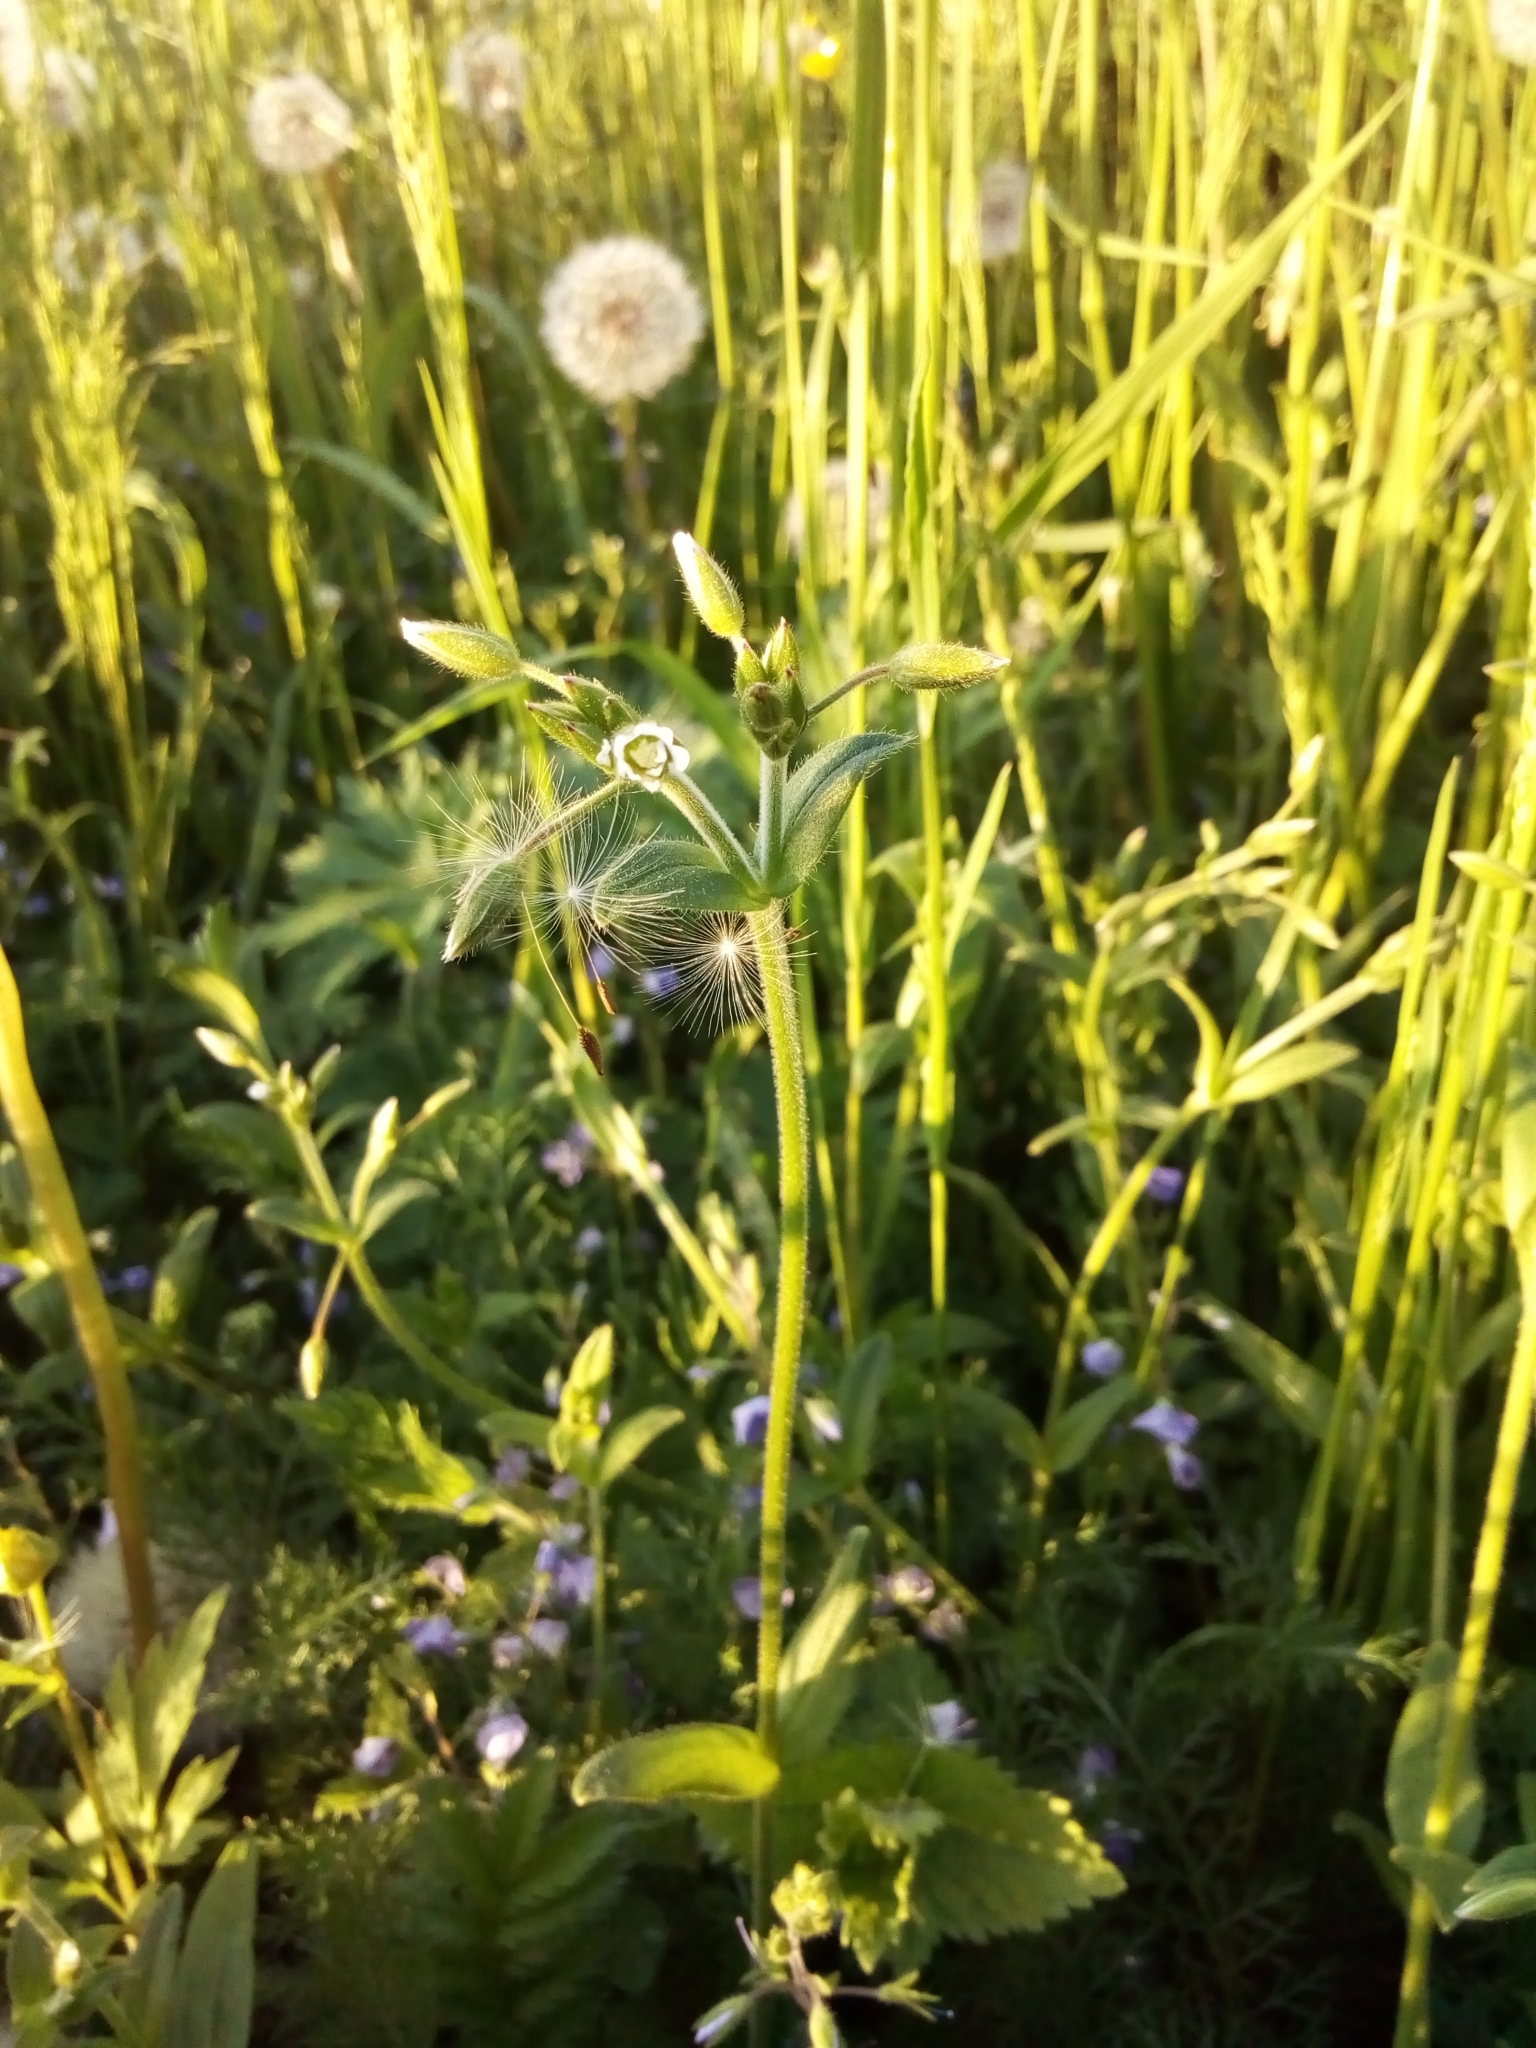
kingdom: Plantae
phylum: Tracheophyta
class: Magnoliopsida
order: Caryophyllales
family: Caryophyllaceae
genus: Cerastium
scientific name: Cerastium holosteoides
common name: Big chickweed
